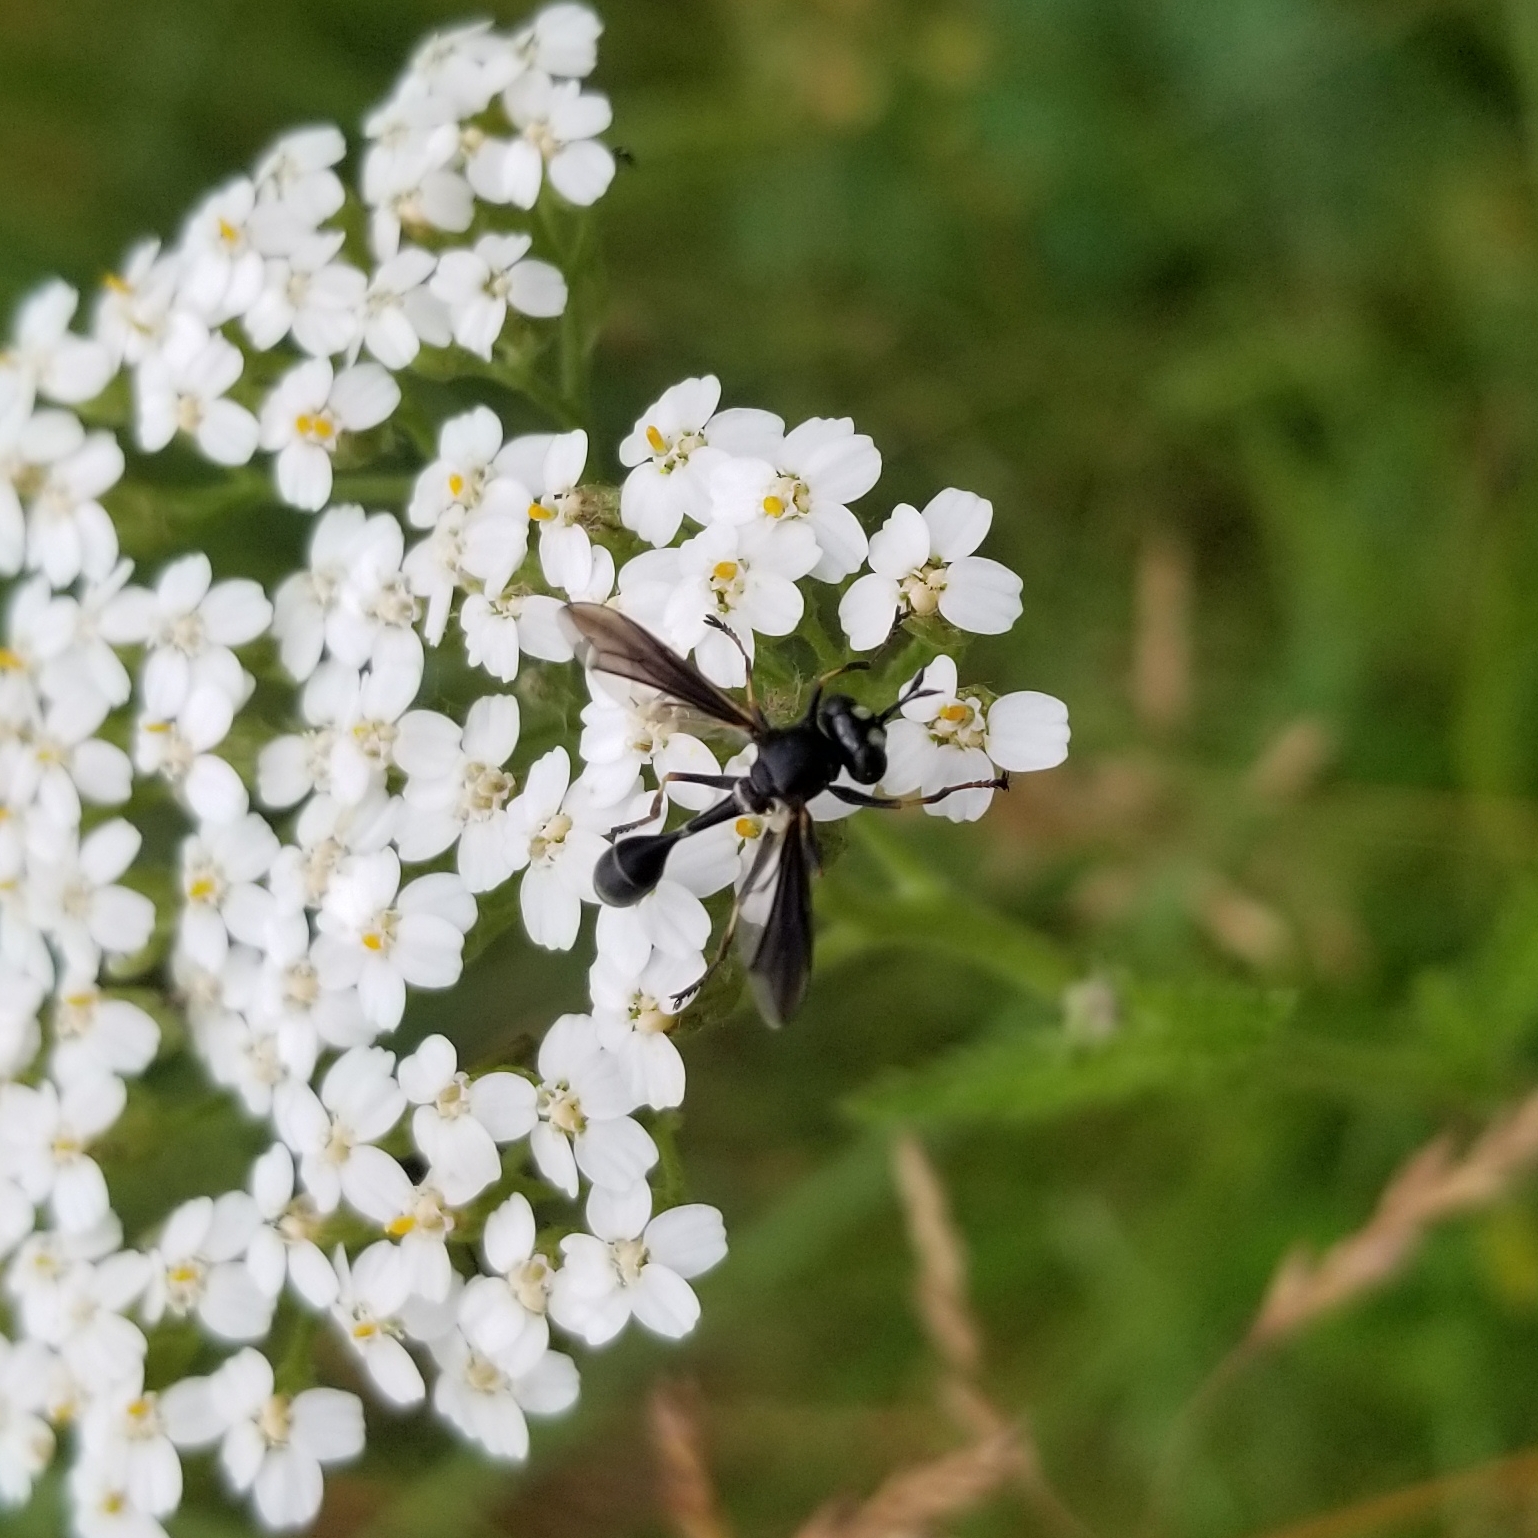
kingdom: Animalia
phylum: Arthropoda
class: Insecta
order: Diptera
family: Conopidae
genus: Physocephala
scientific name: Physocephala tibialis
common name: Common eastern physocephala
